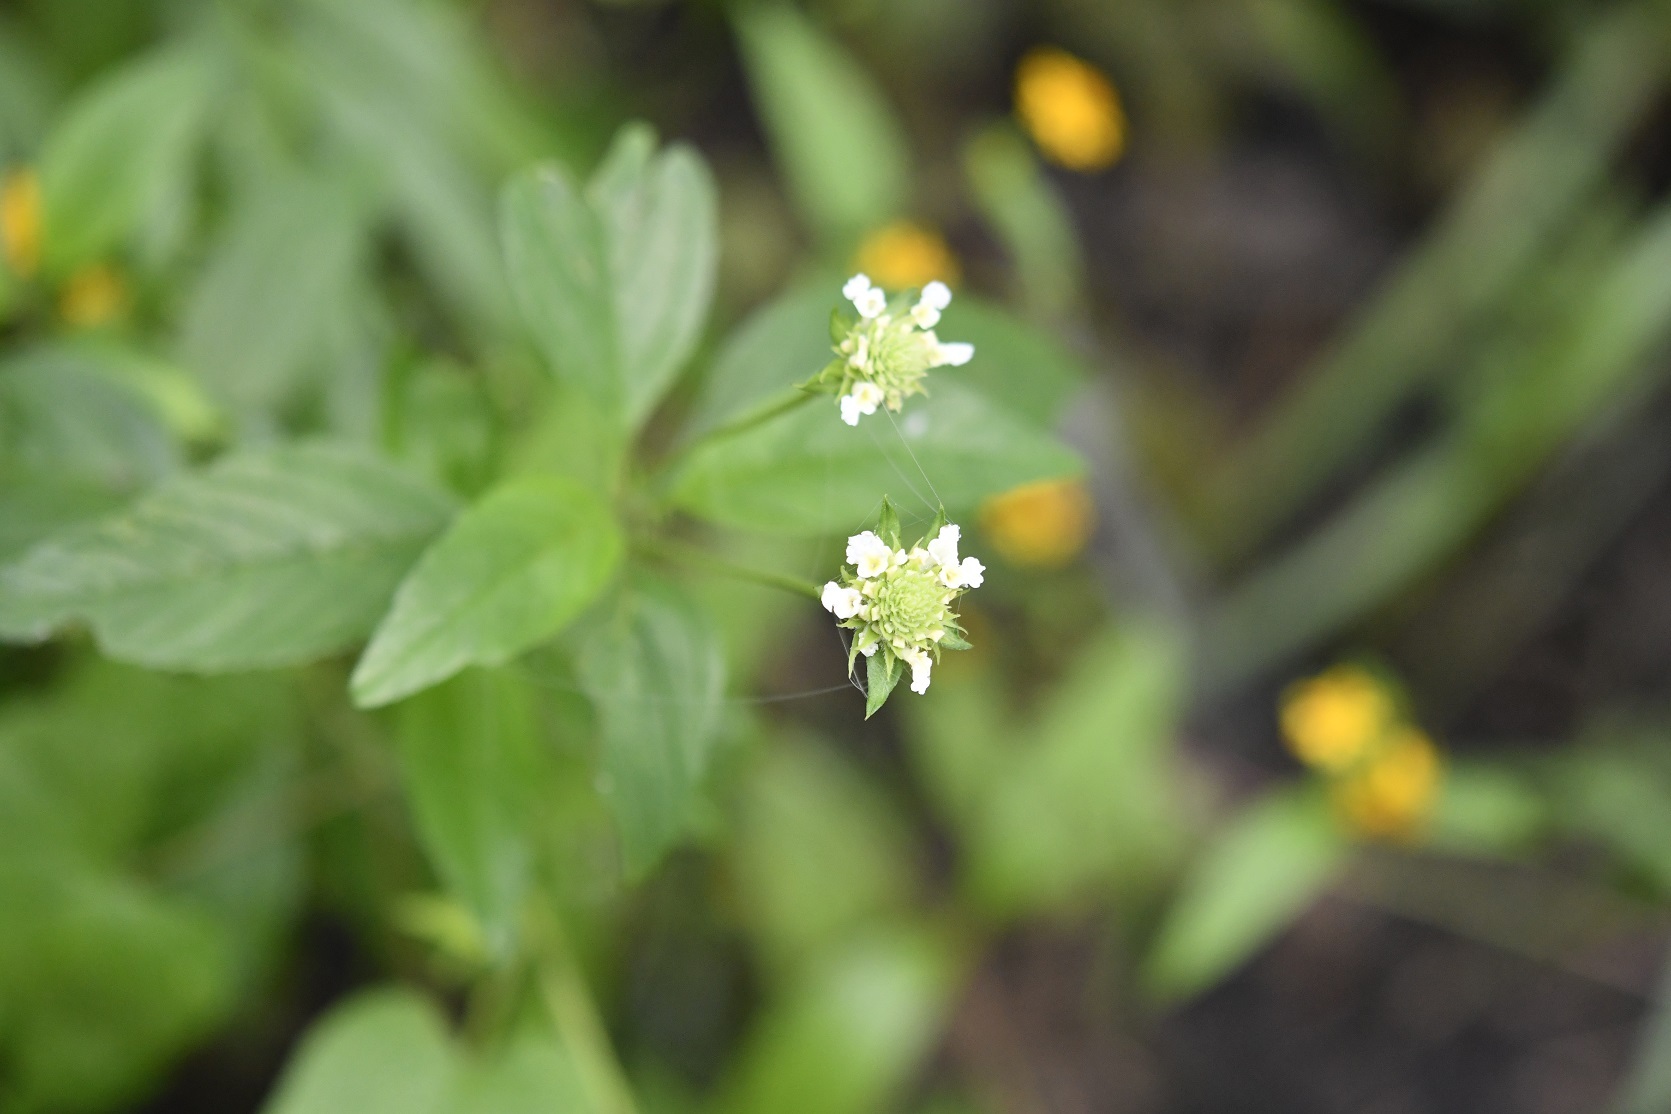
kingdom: Plantae
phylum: Tracheophyta
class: Magnoliopsida
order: Lamiales
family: Verbenaceae
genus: Lippia
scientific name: Lippia dulcis
